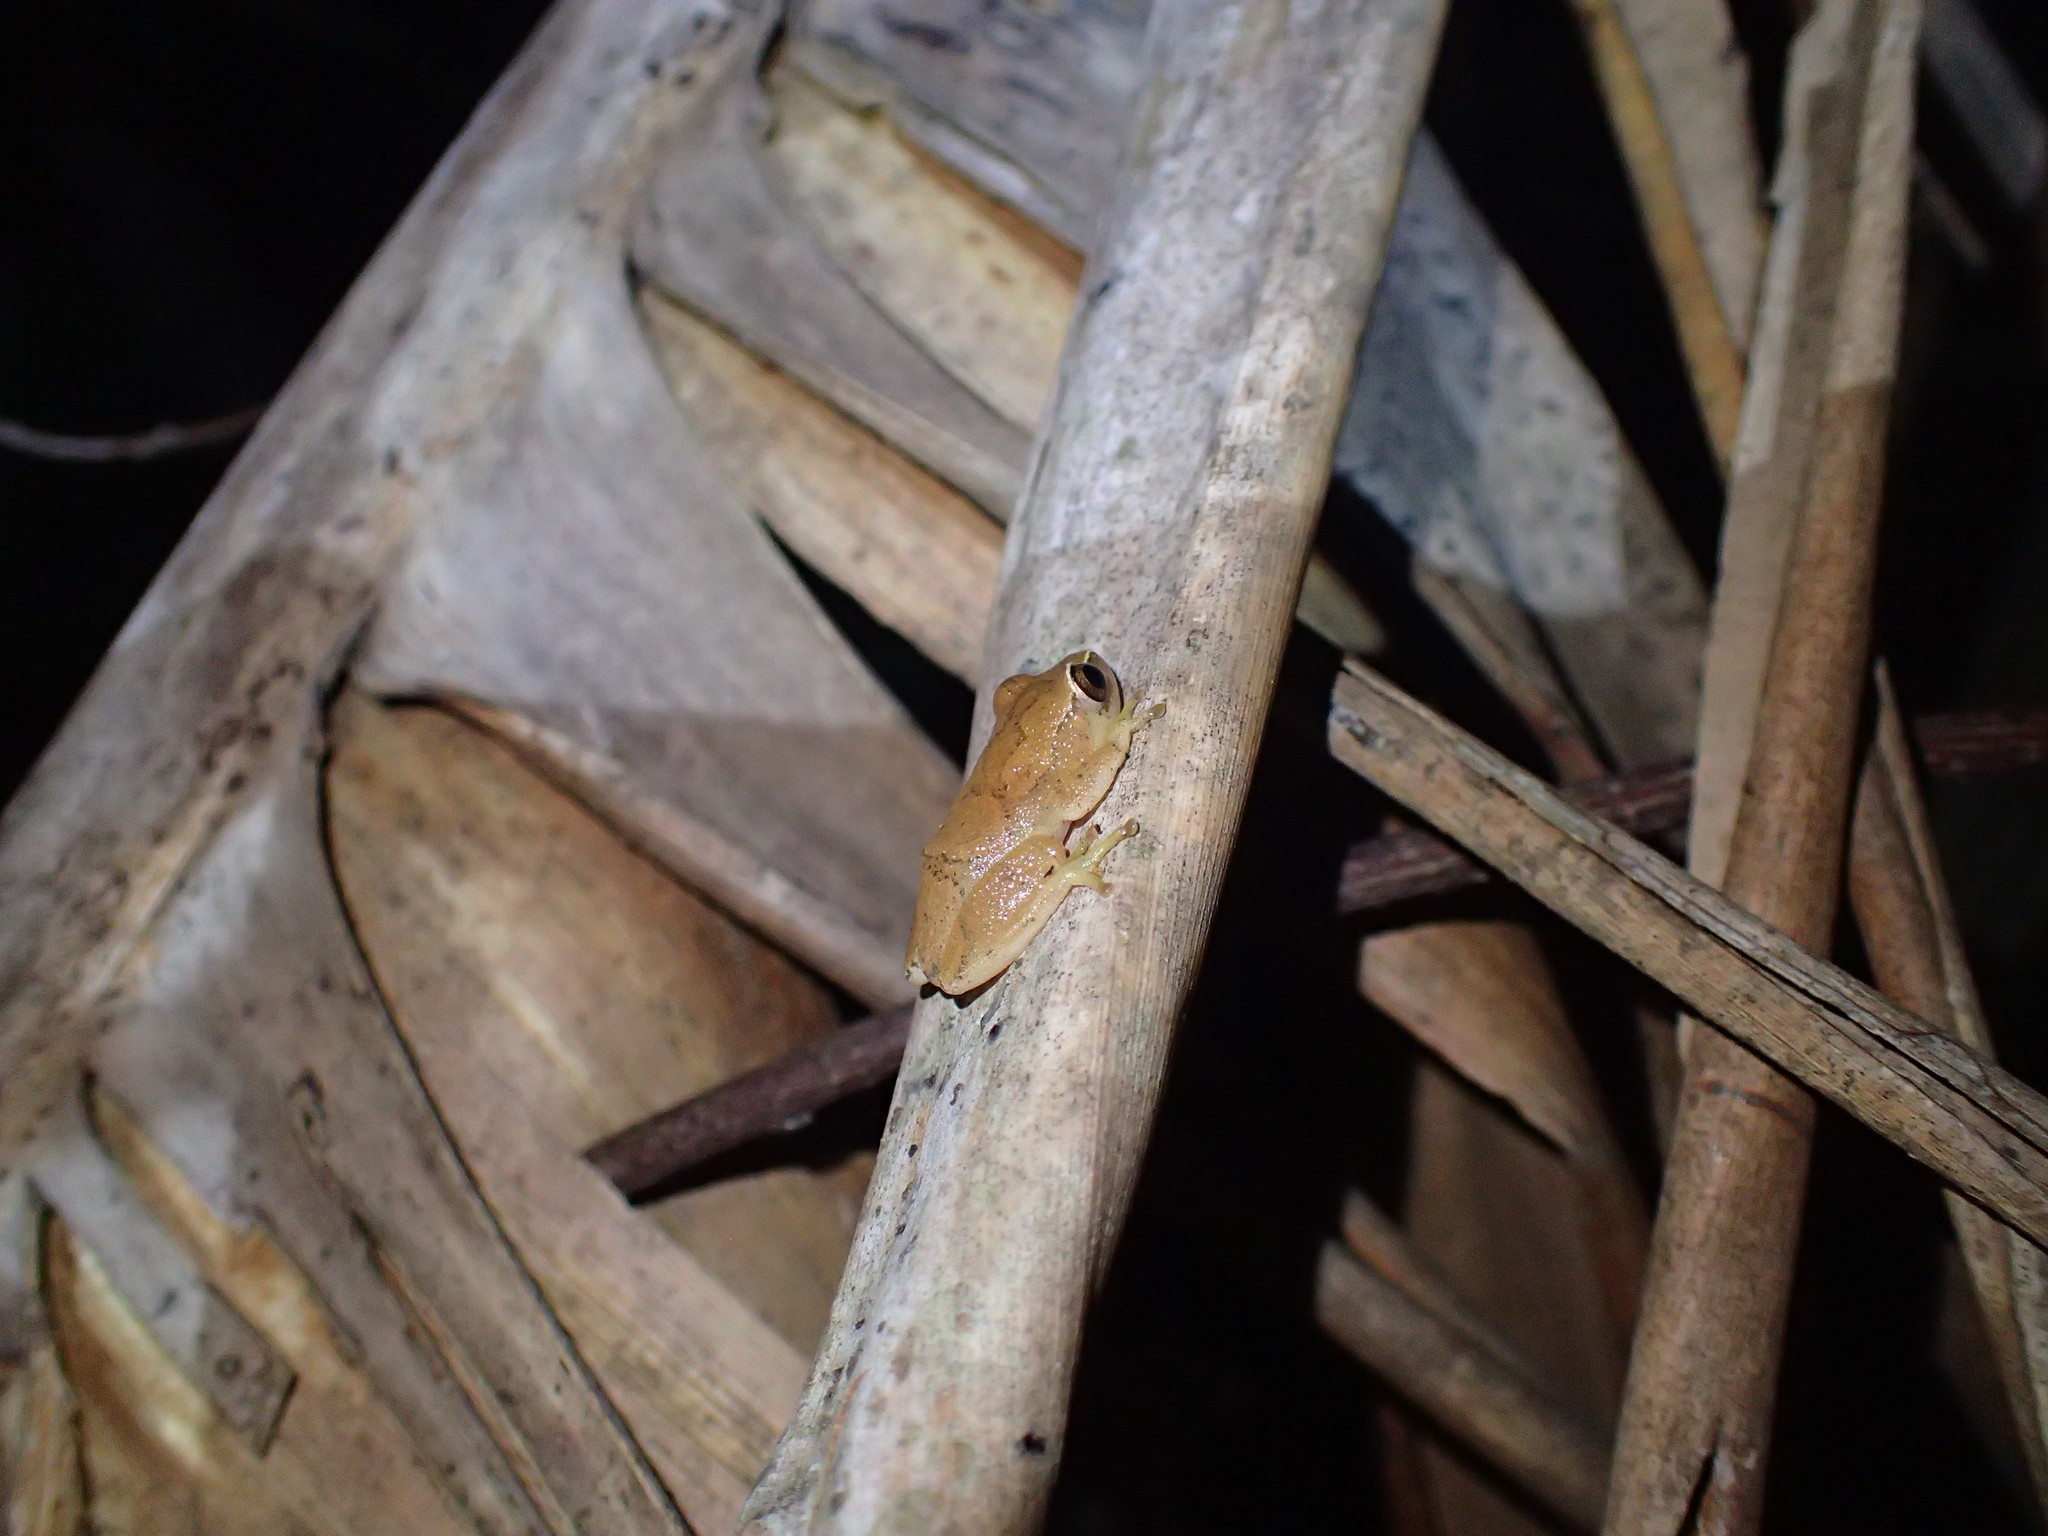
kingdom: Animalia
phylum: Chordata
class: Amphibia
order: Anura
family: Hyperoliidae
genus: Hyperolius
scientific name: Hyperolius tuberilinguis
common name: Tinker reed frog
